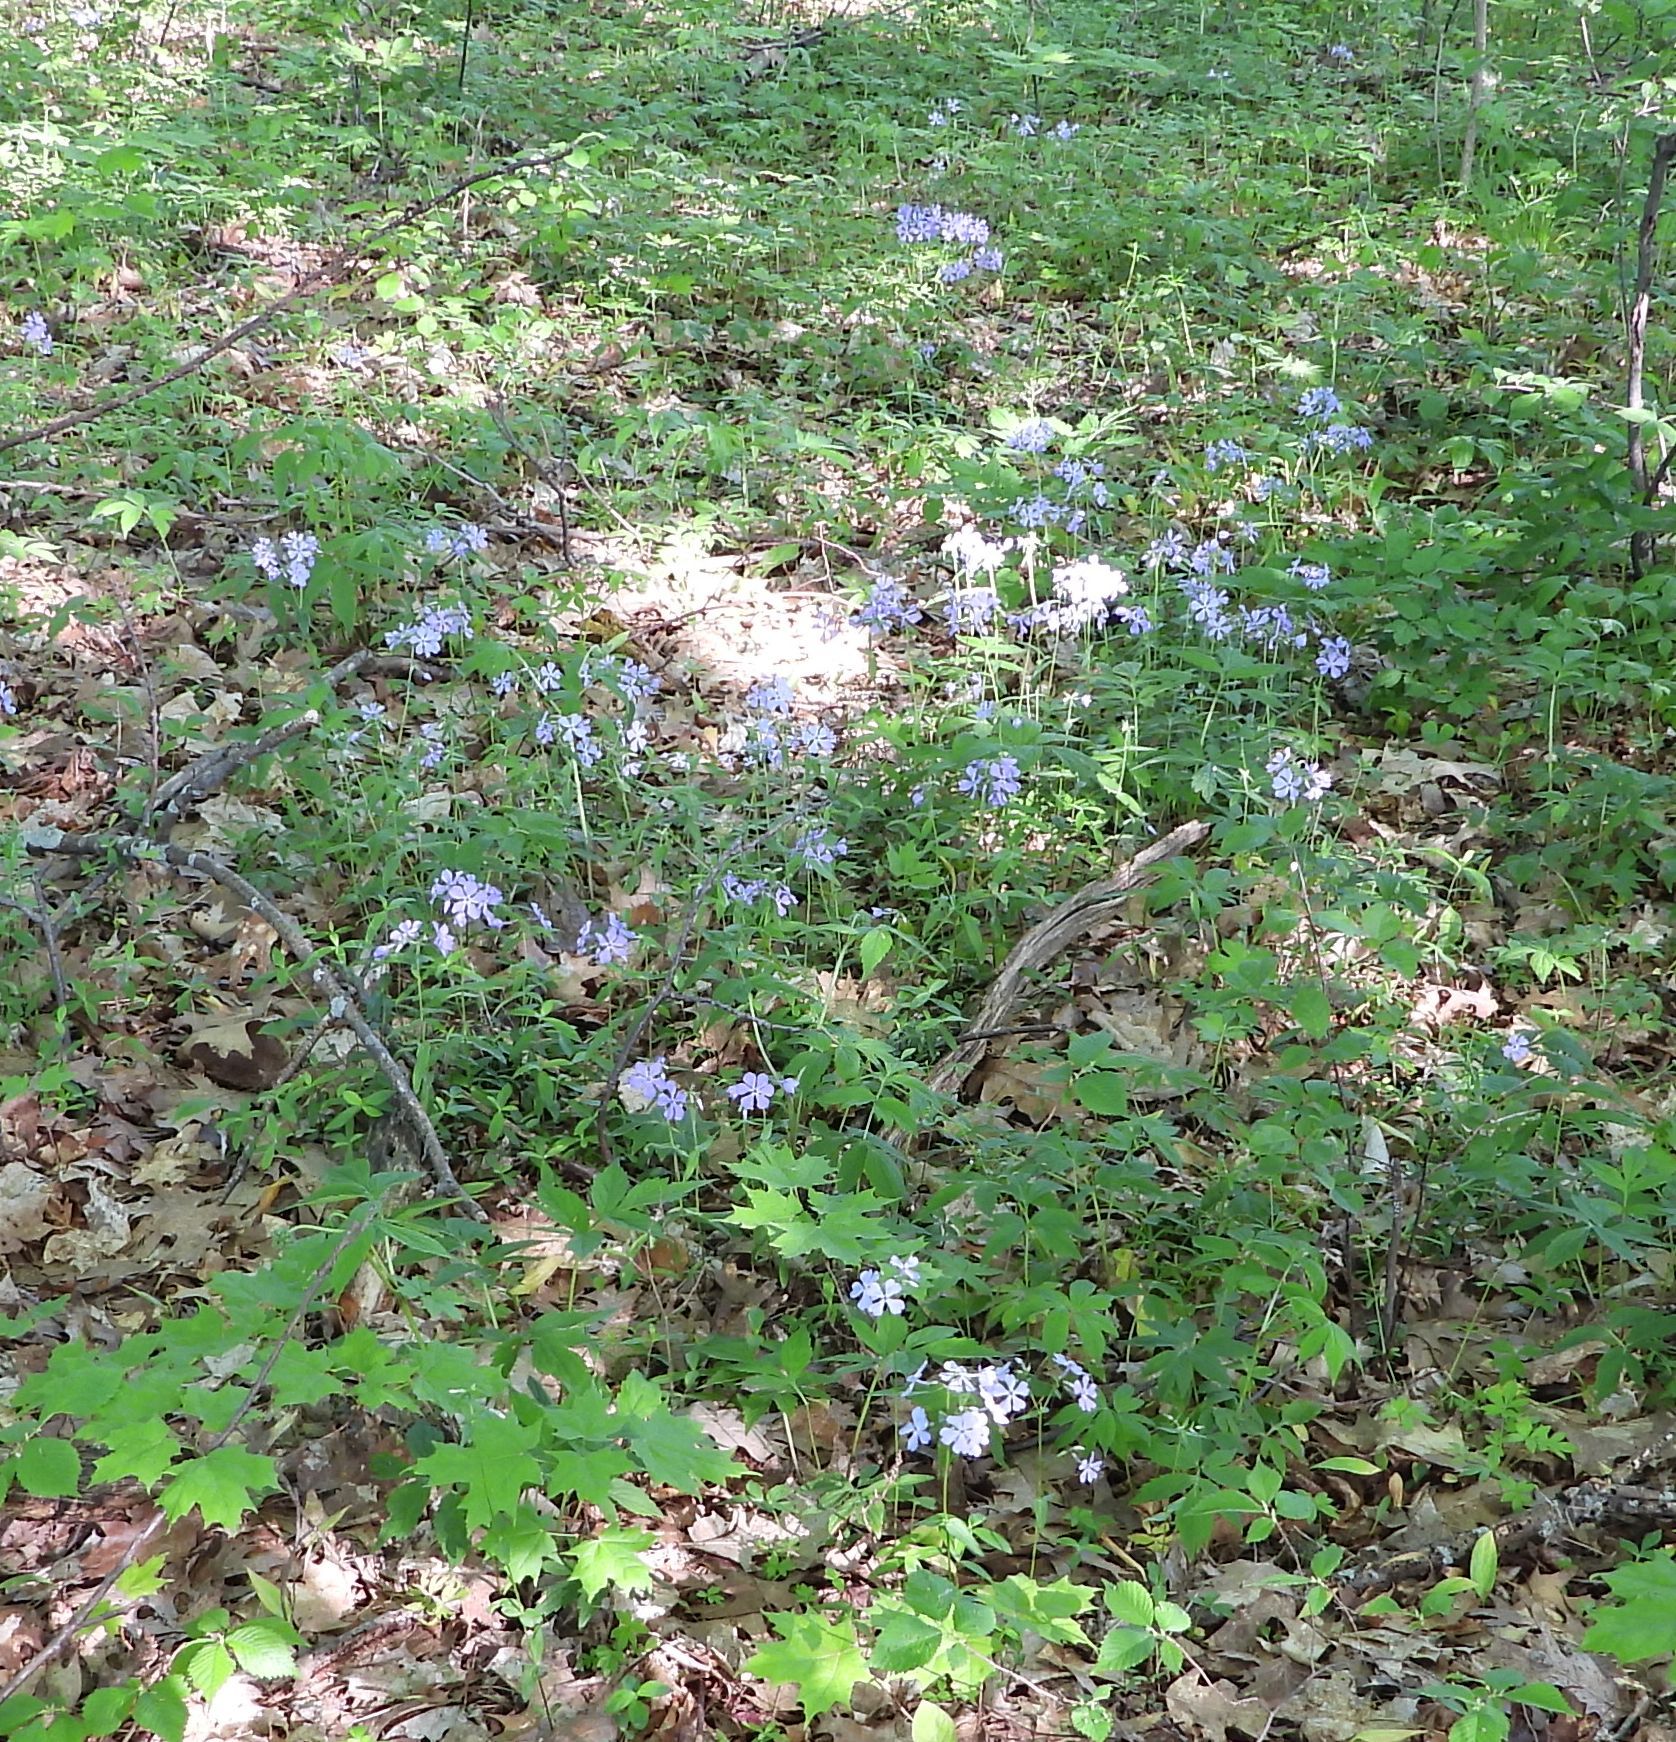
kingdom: Plantae
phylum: Tracheophyta
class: Magnoliopsida
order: Ericales
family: Polemoniaceae
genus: Phlox
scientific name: Phlox divaricata
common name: Blue phlox
